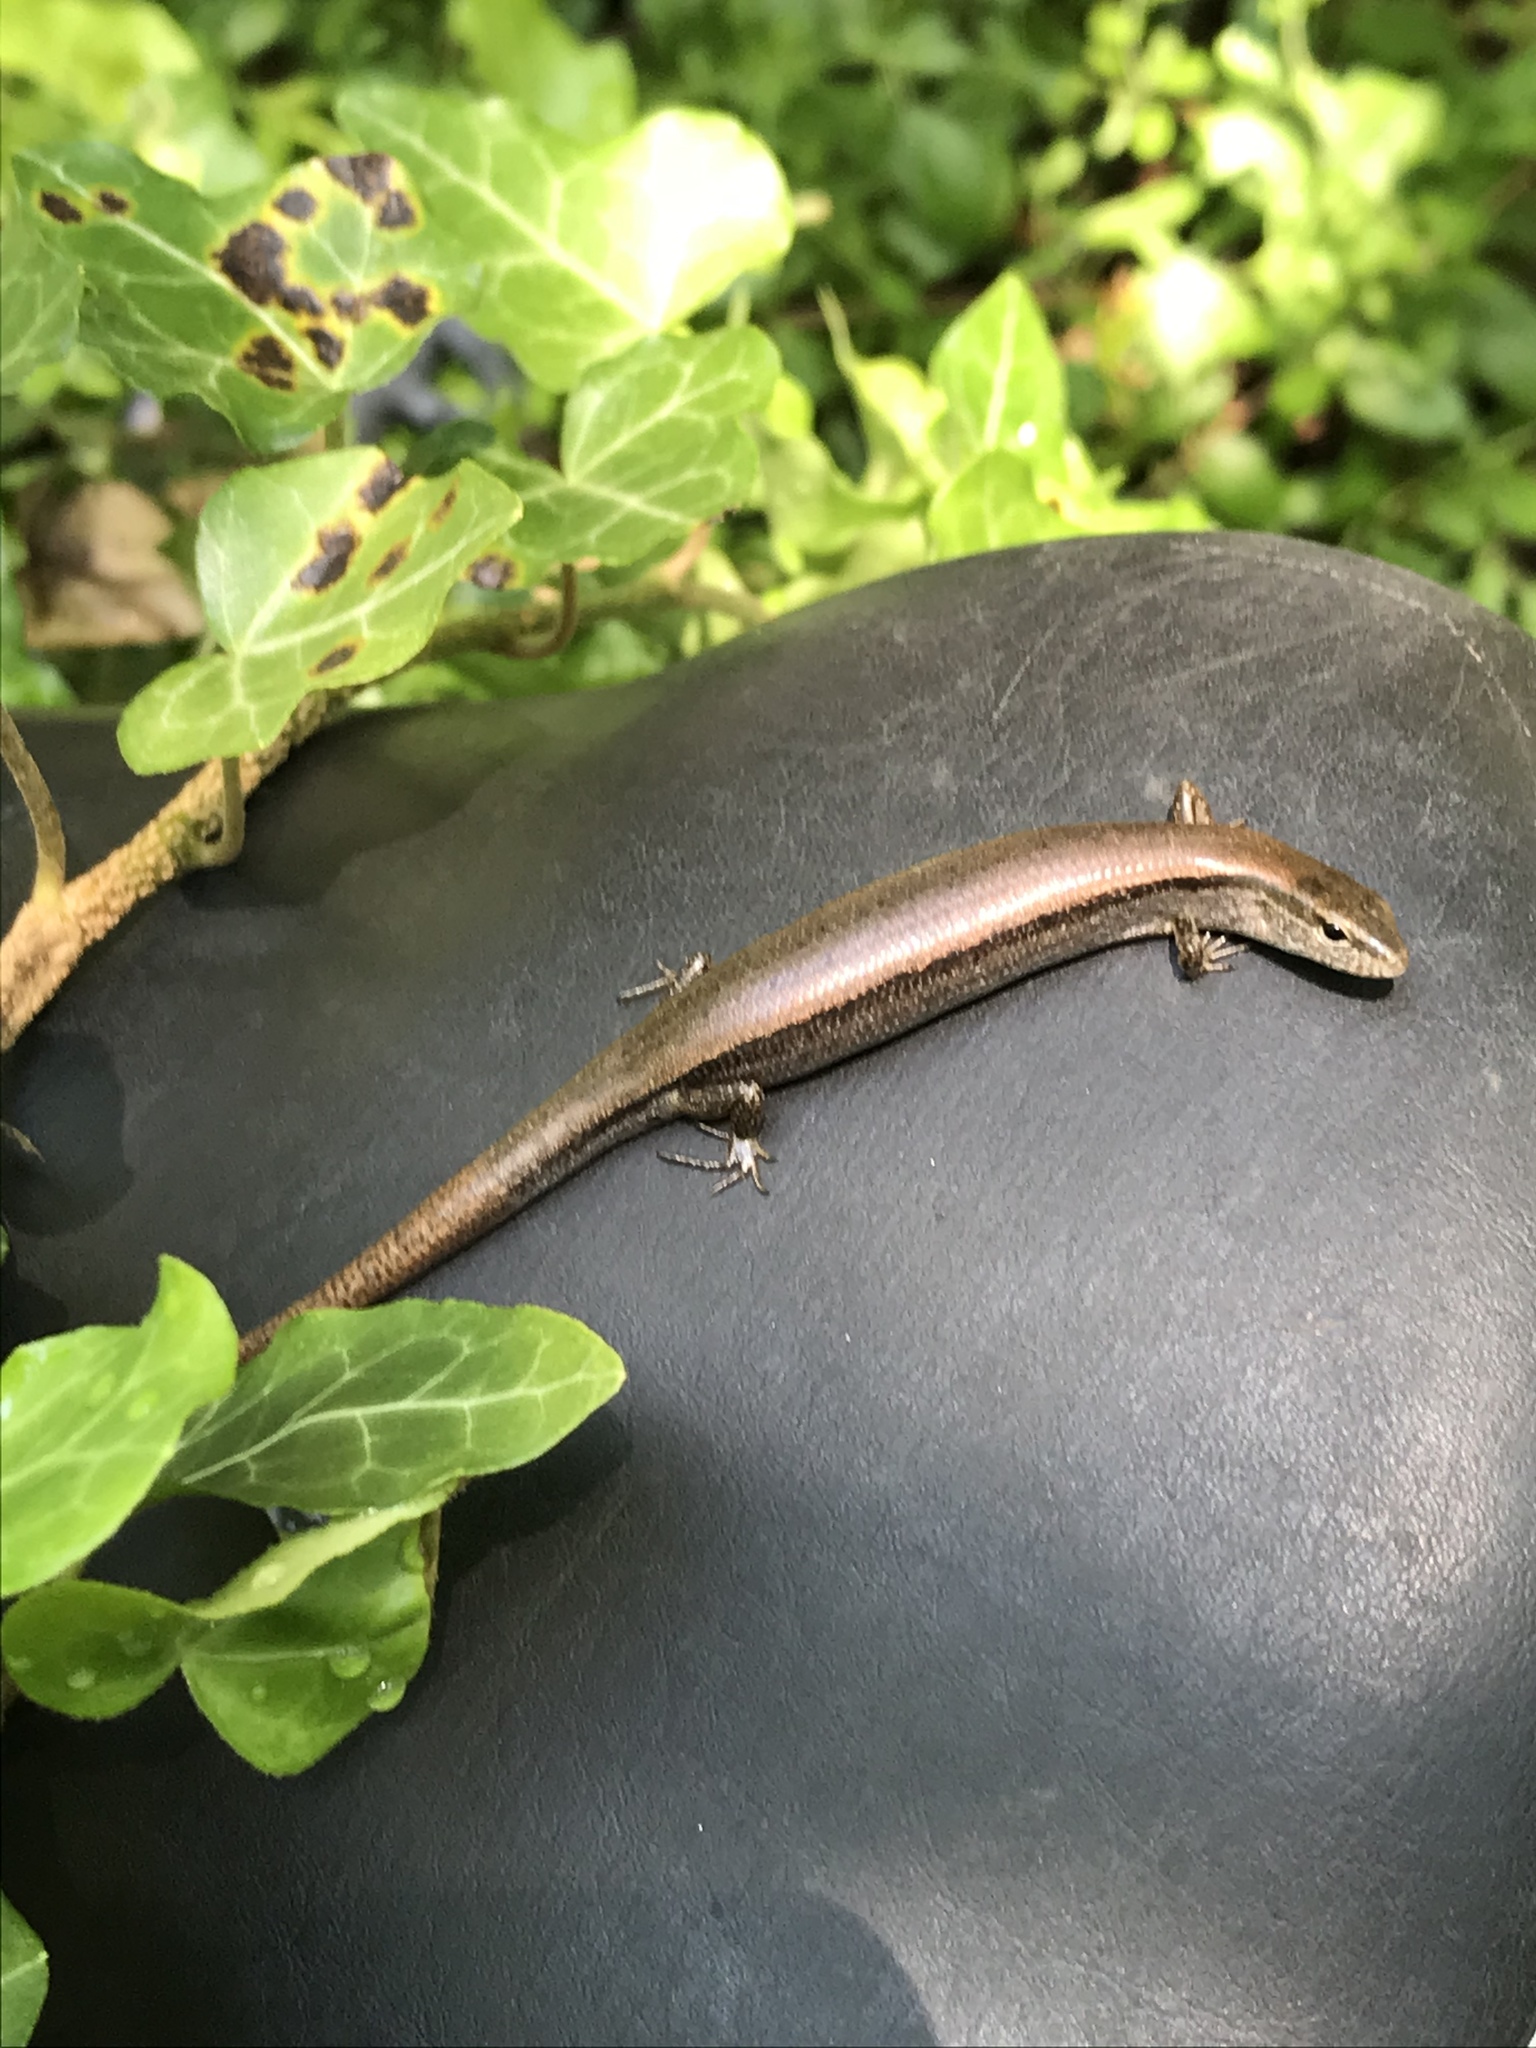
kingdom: Animalia
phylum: Chordata
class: Squamata
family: Scincidae
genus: Scincella
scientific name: Scincella lateralis
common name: Ground skink
